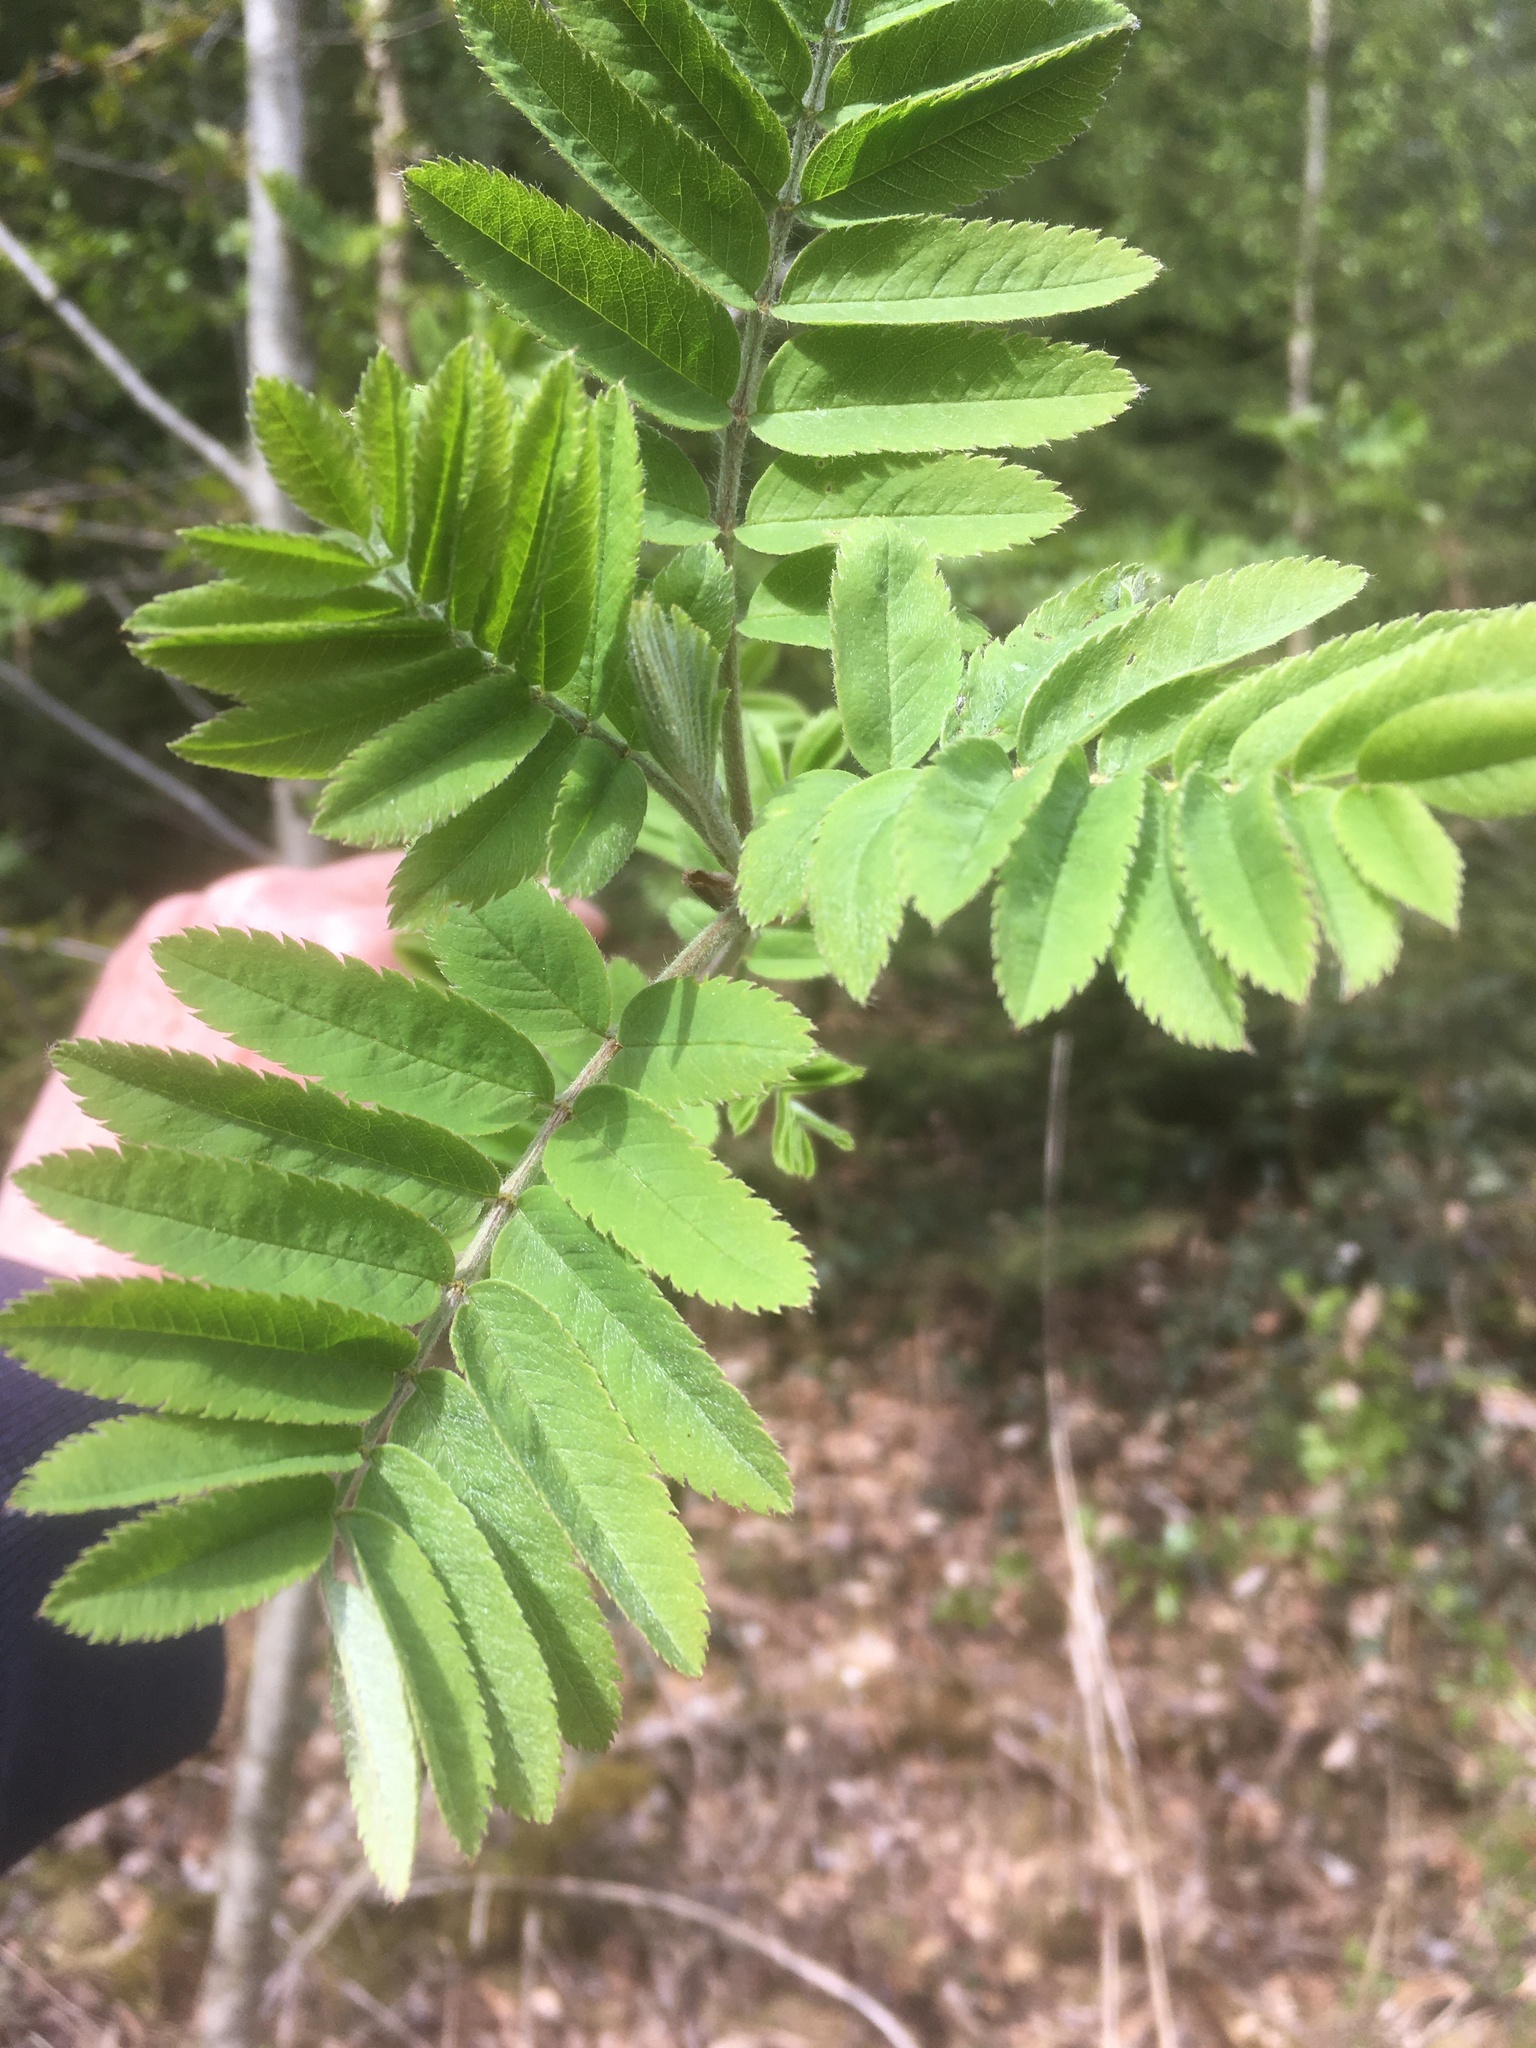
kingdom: Plantae
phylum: Tracheophyta
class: Magnoliopsida
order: Rosales
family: Rosaceae
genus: Sorbus
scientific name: Sorbus aucuparia
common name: Rowan
